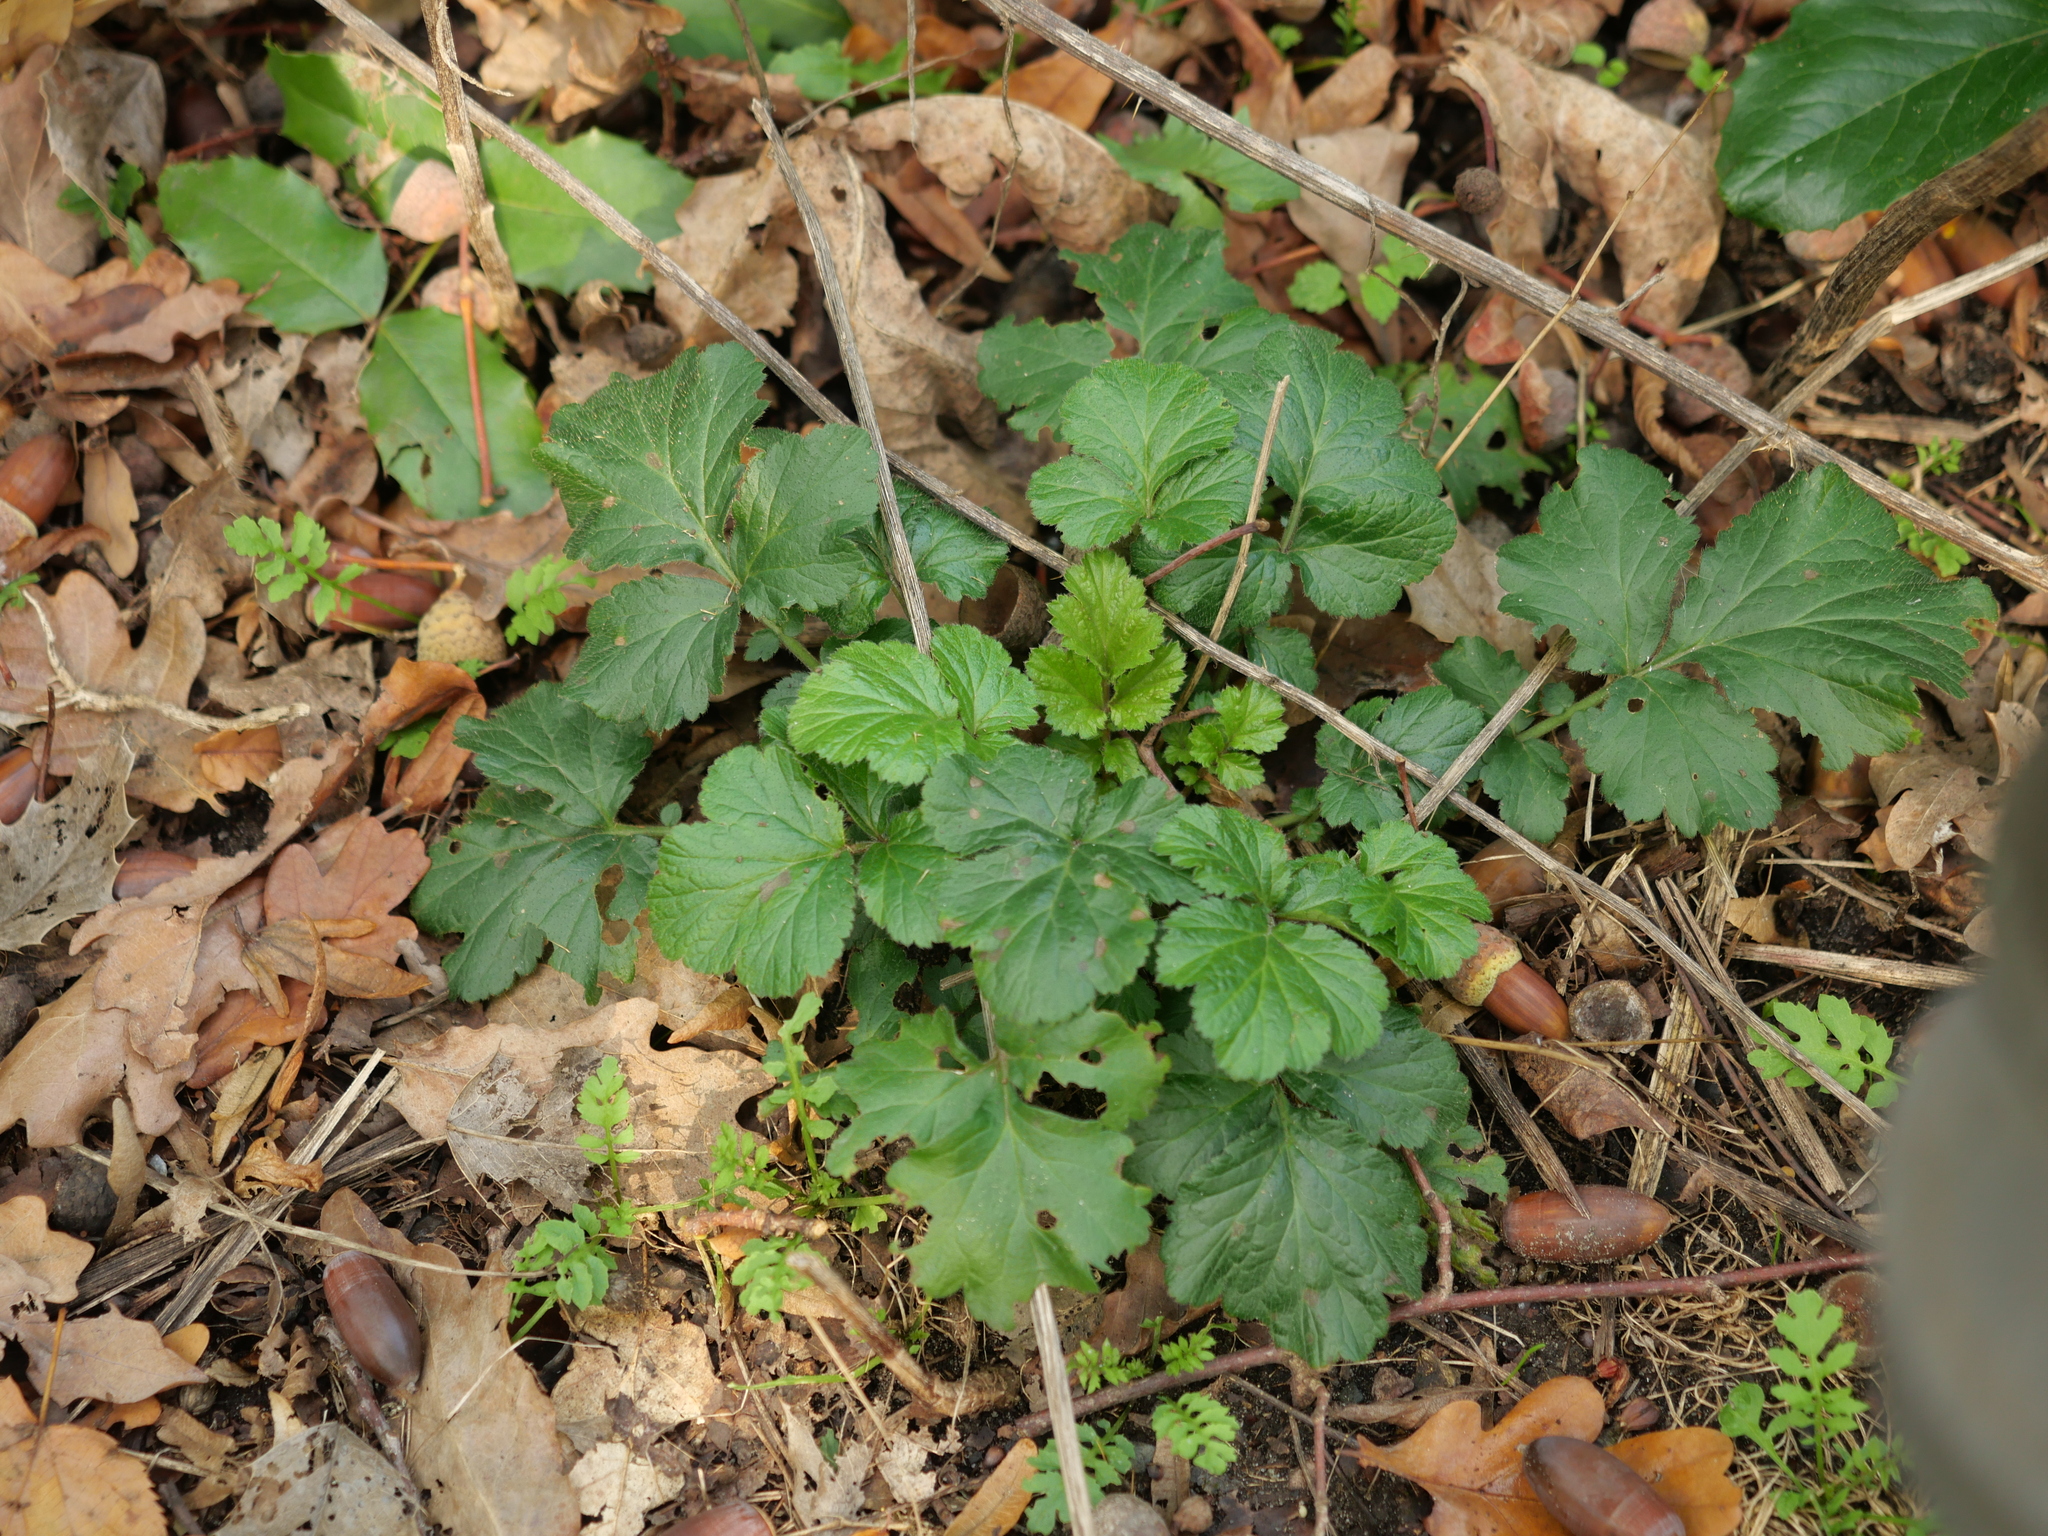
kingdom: Plantae
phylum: Tracheophyta
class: Magnoliopsida
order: Rosales
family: Rosaceae
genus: Geum
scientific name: Geum urbanum
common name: Wood avens
